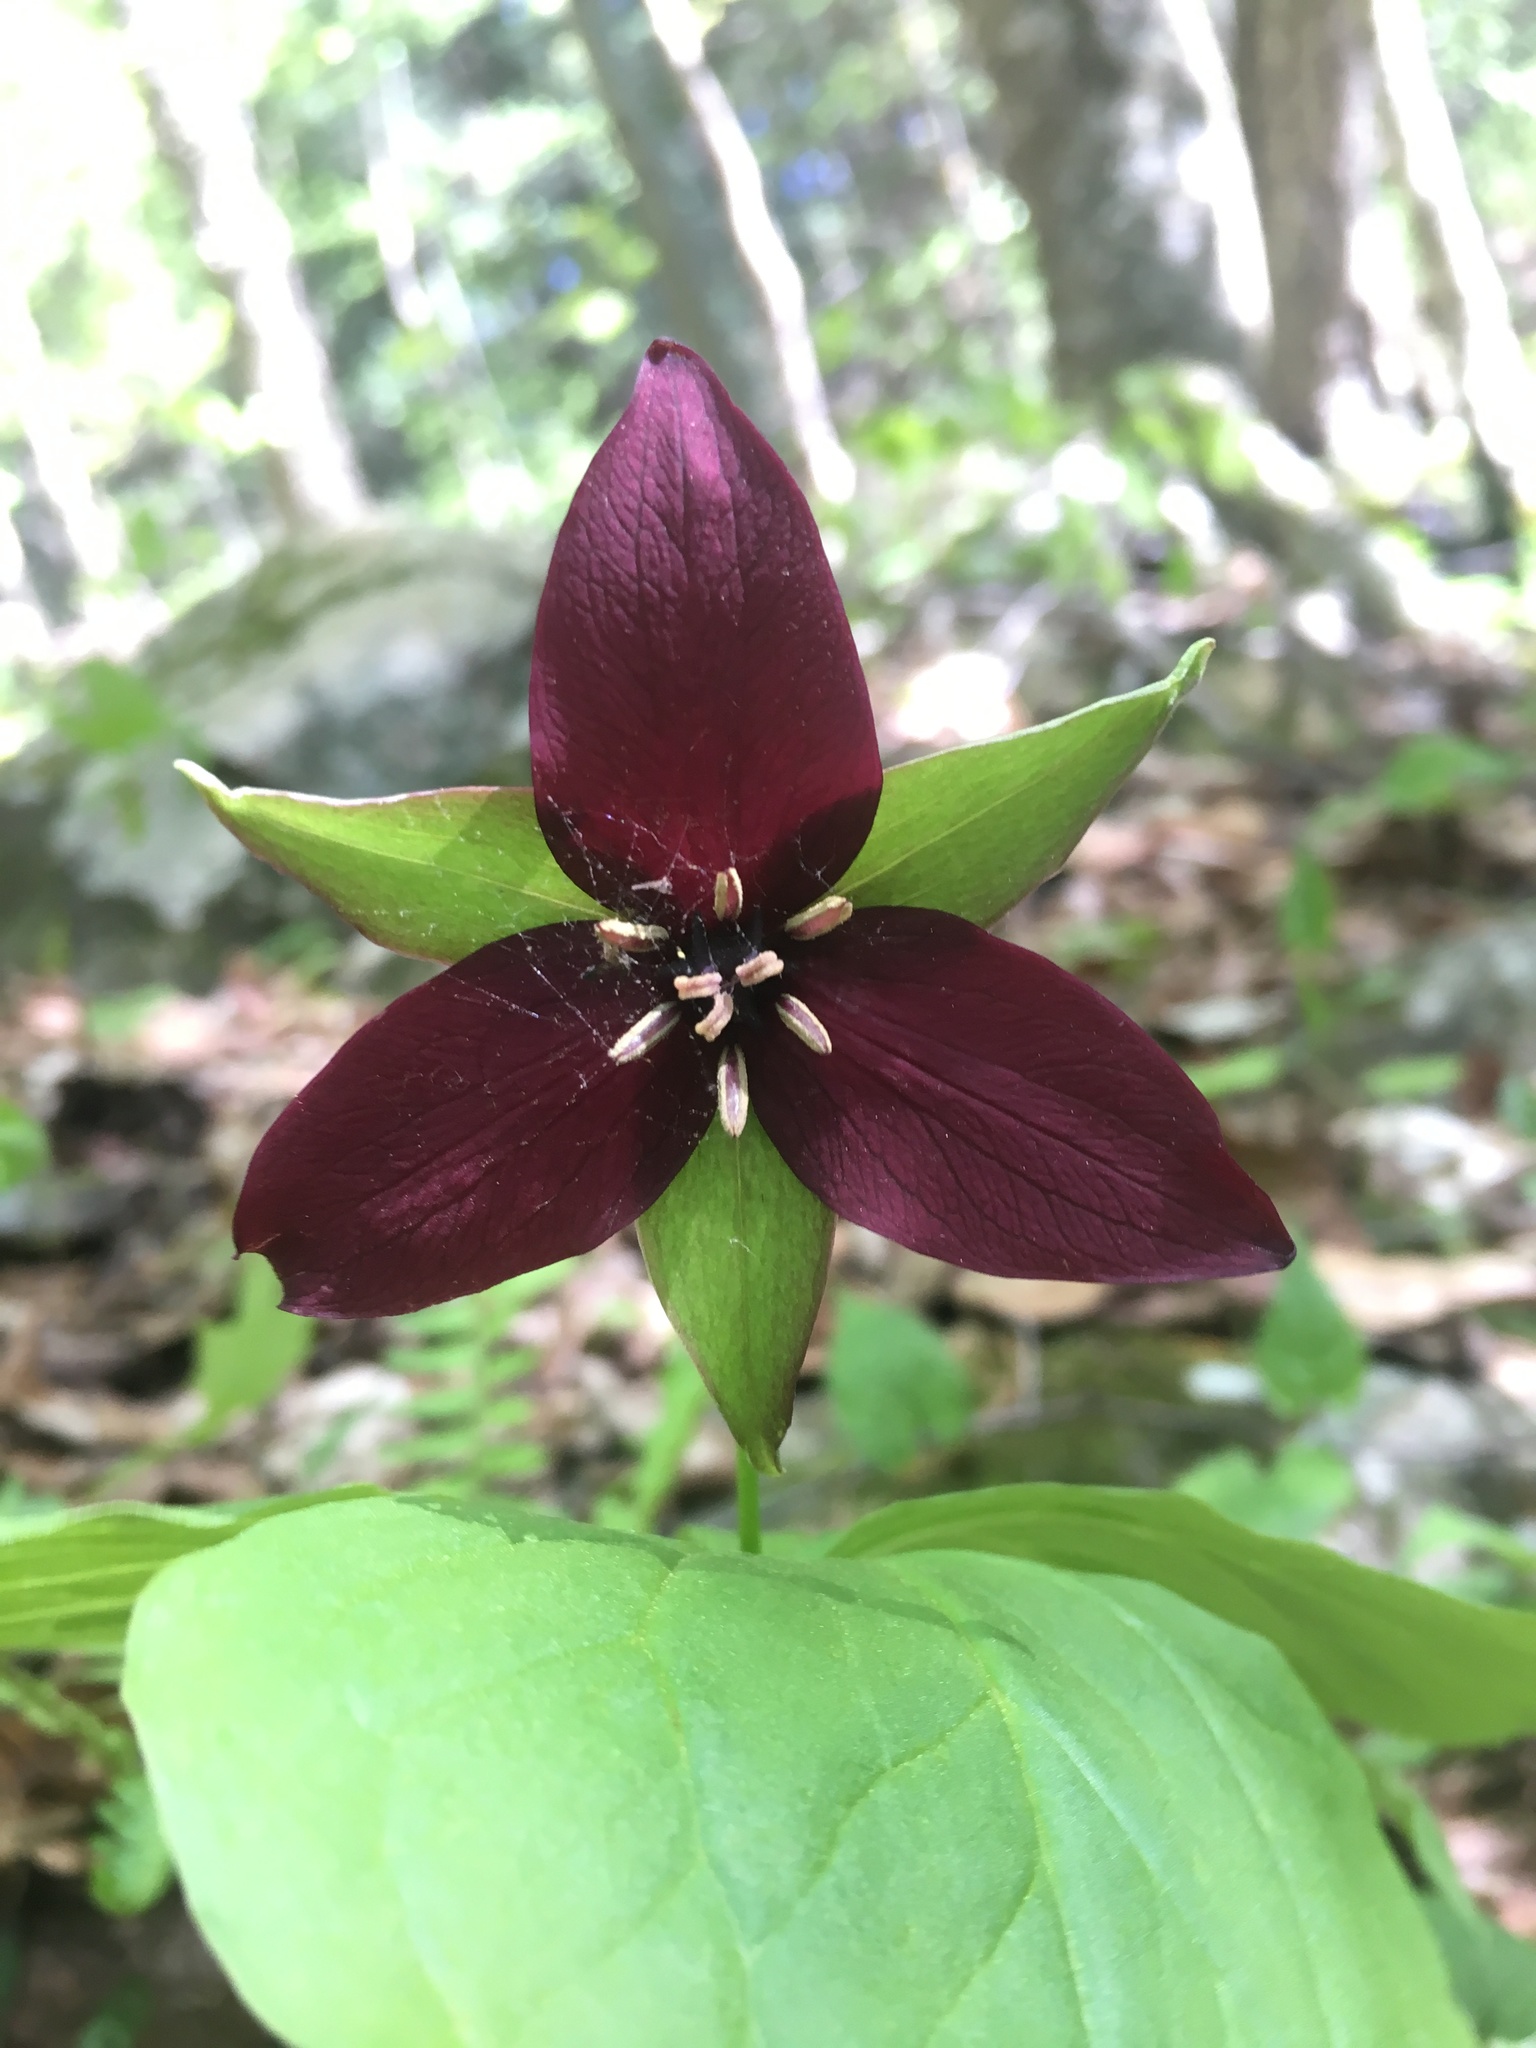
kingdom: Plantae
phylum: Tracheophyta
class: Liliopsida
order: Liliales
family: Melanthiaceae
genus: Trillium
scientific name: Trillium erectum
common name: Purple trillium
